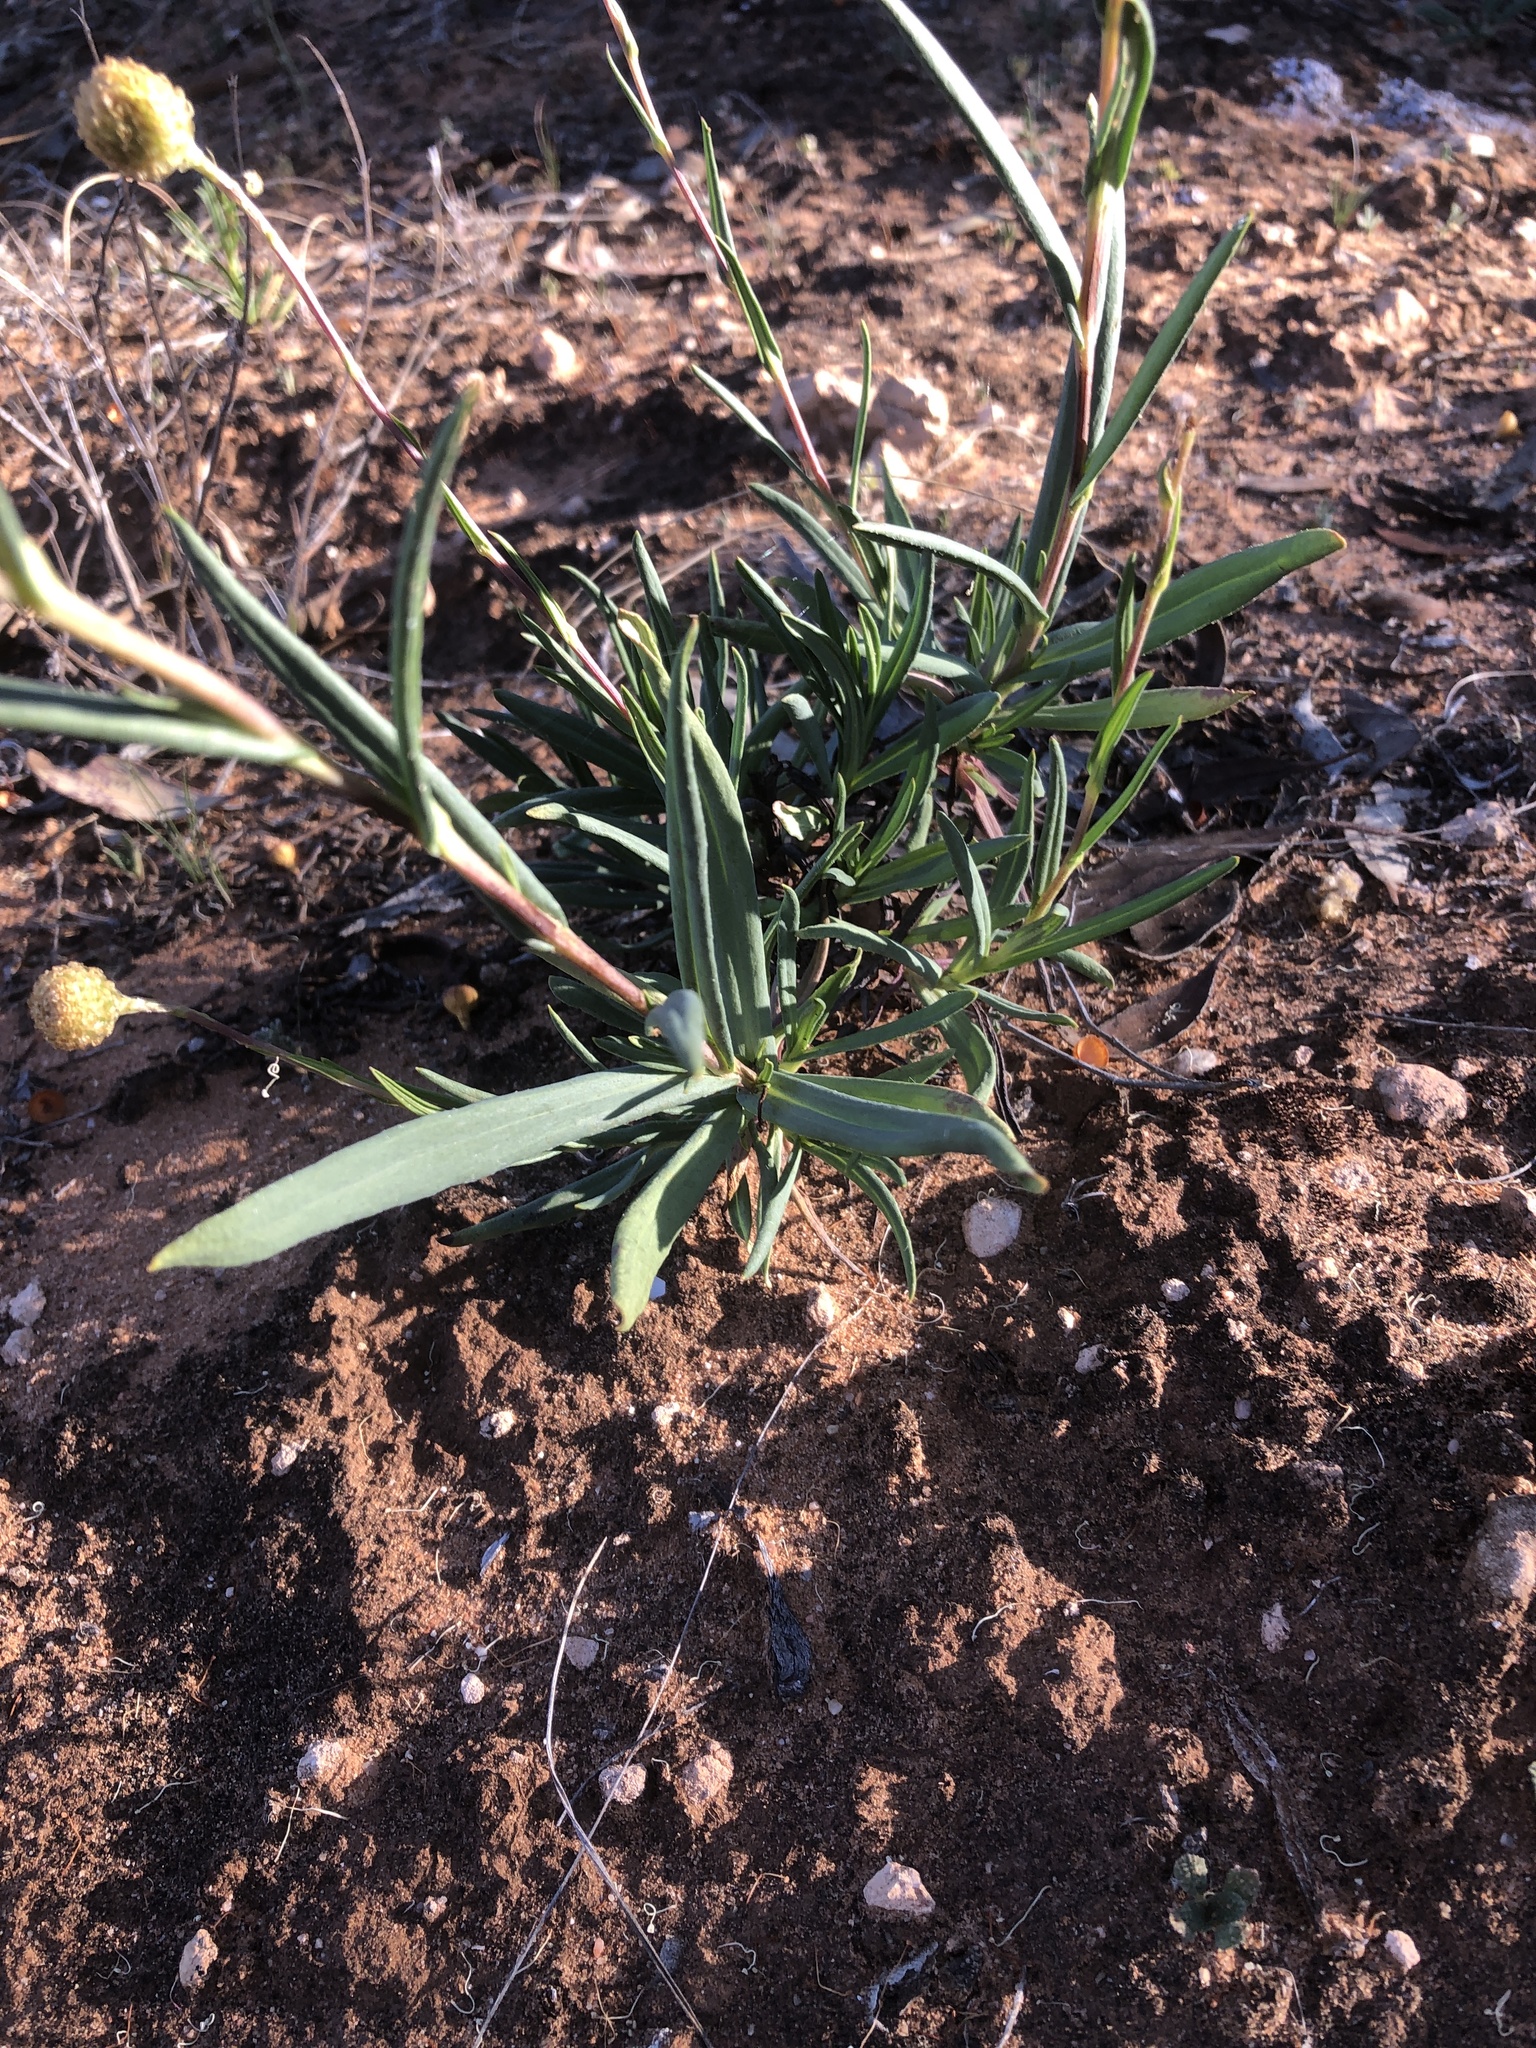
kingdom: Plantae
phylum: Tracheophyta
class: Magnoliopsida
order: Asterales
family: Asteraceae
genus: Podolepis
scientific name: Podolepis rugata
